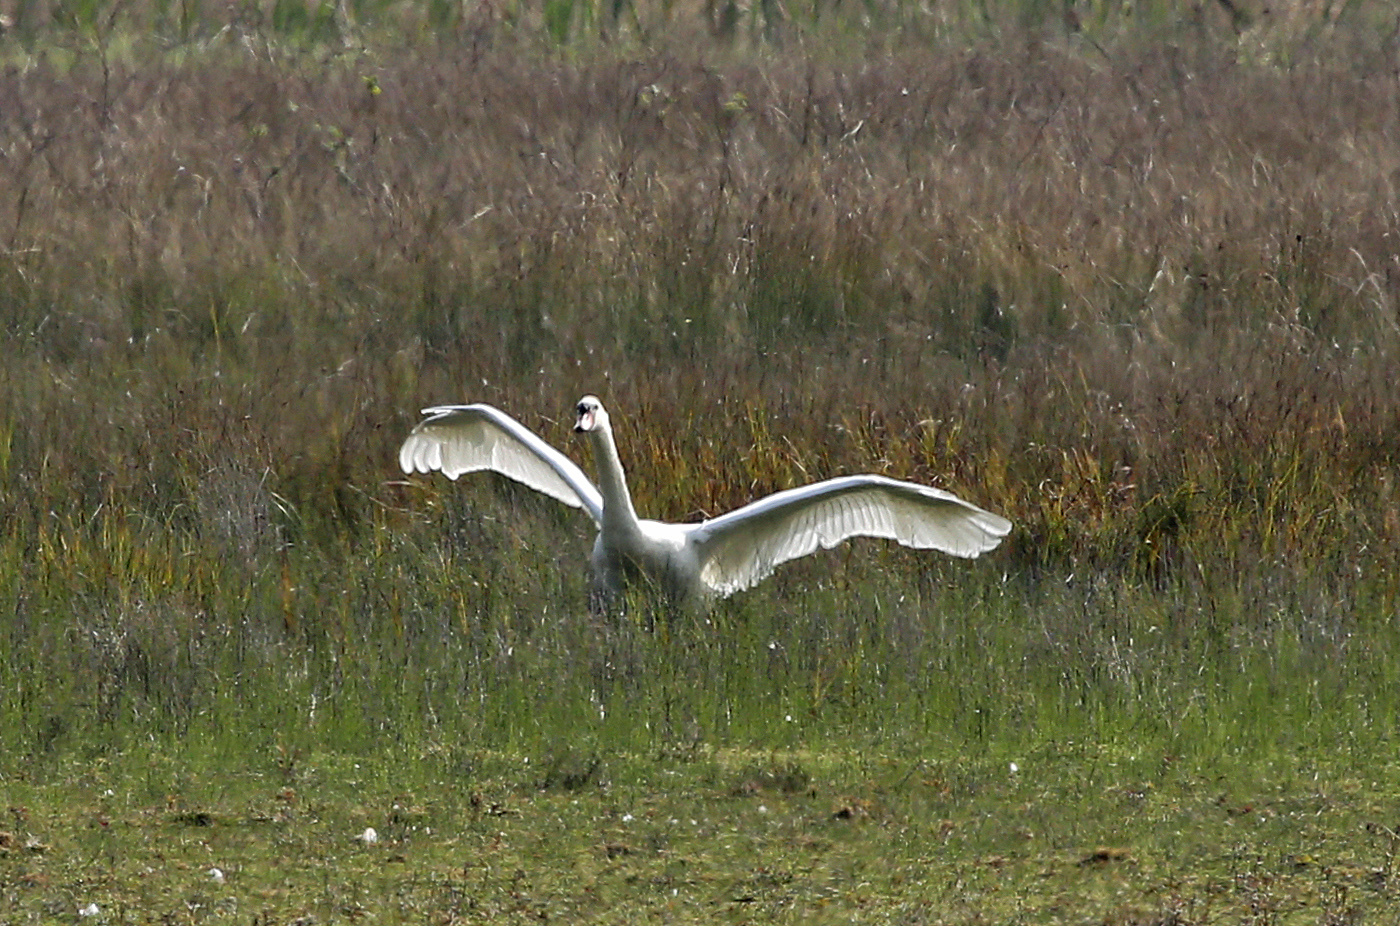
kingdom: Animalia
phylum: Chordata
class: Aves
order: Anseriformes
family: Anatidae
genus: Cygnus
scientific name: Cygnus olor
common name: Mute swan
